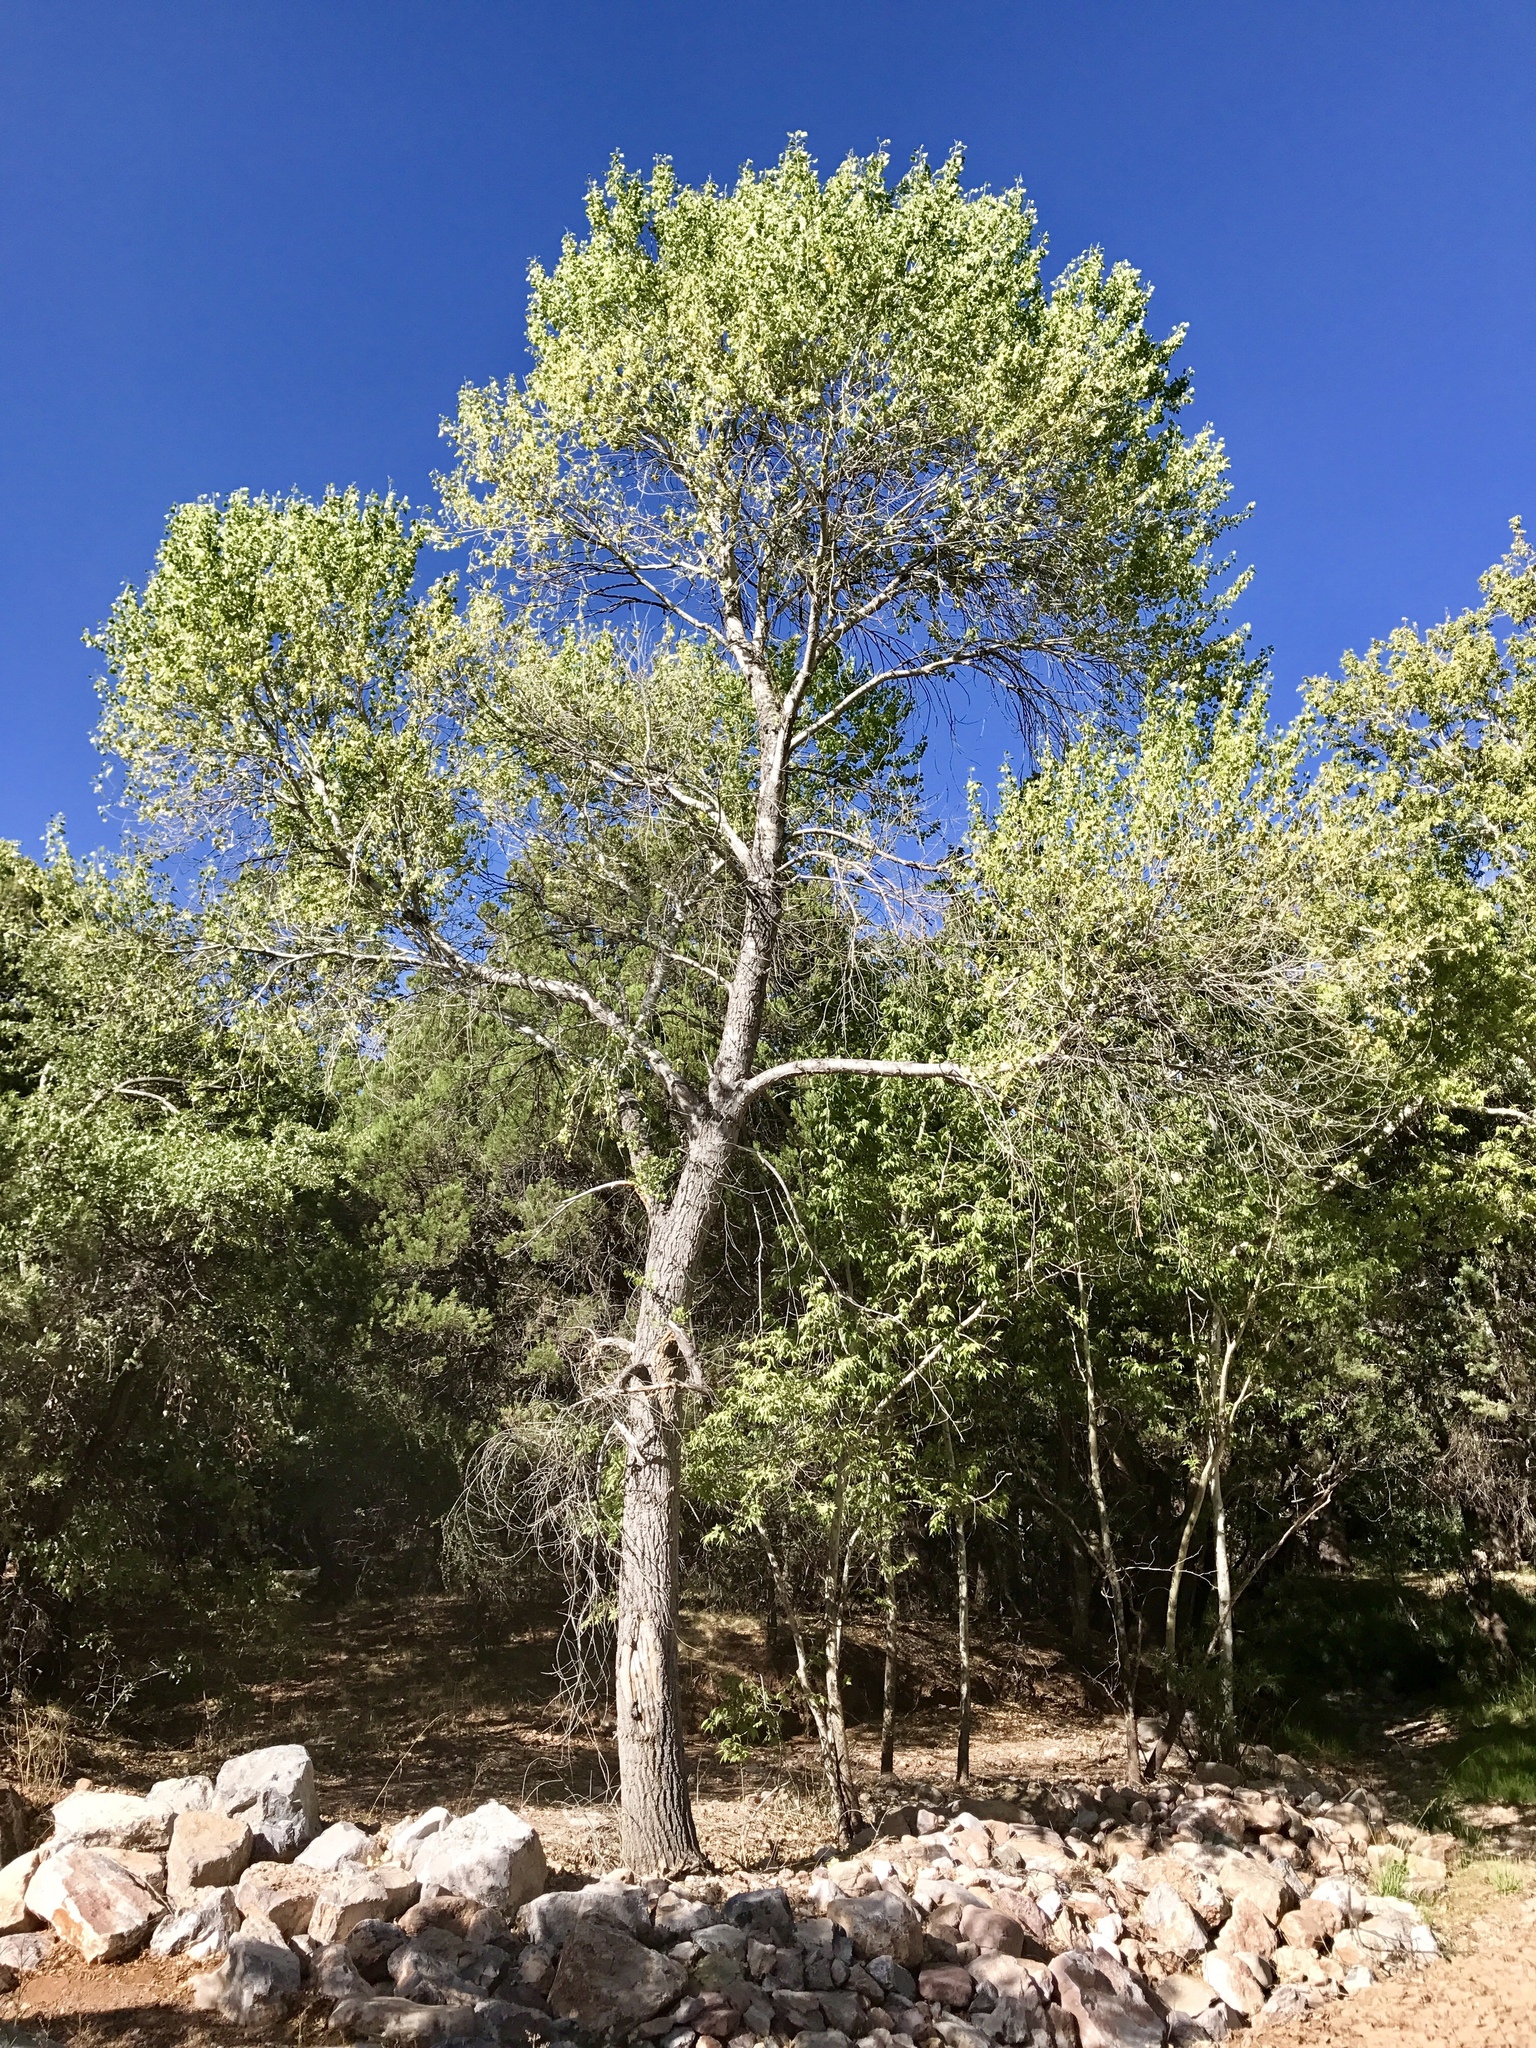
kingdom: Plantae
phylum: Tracheophyta
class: Magnoliopsida
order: Malpighiales
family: Salicaceae
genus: Populus
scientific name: Populus fremontii
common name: Fremont's cottonwood
